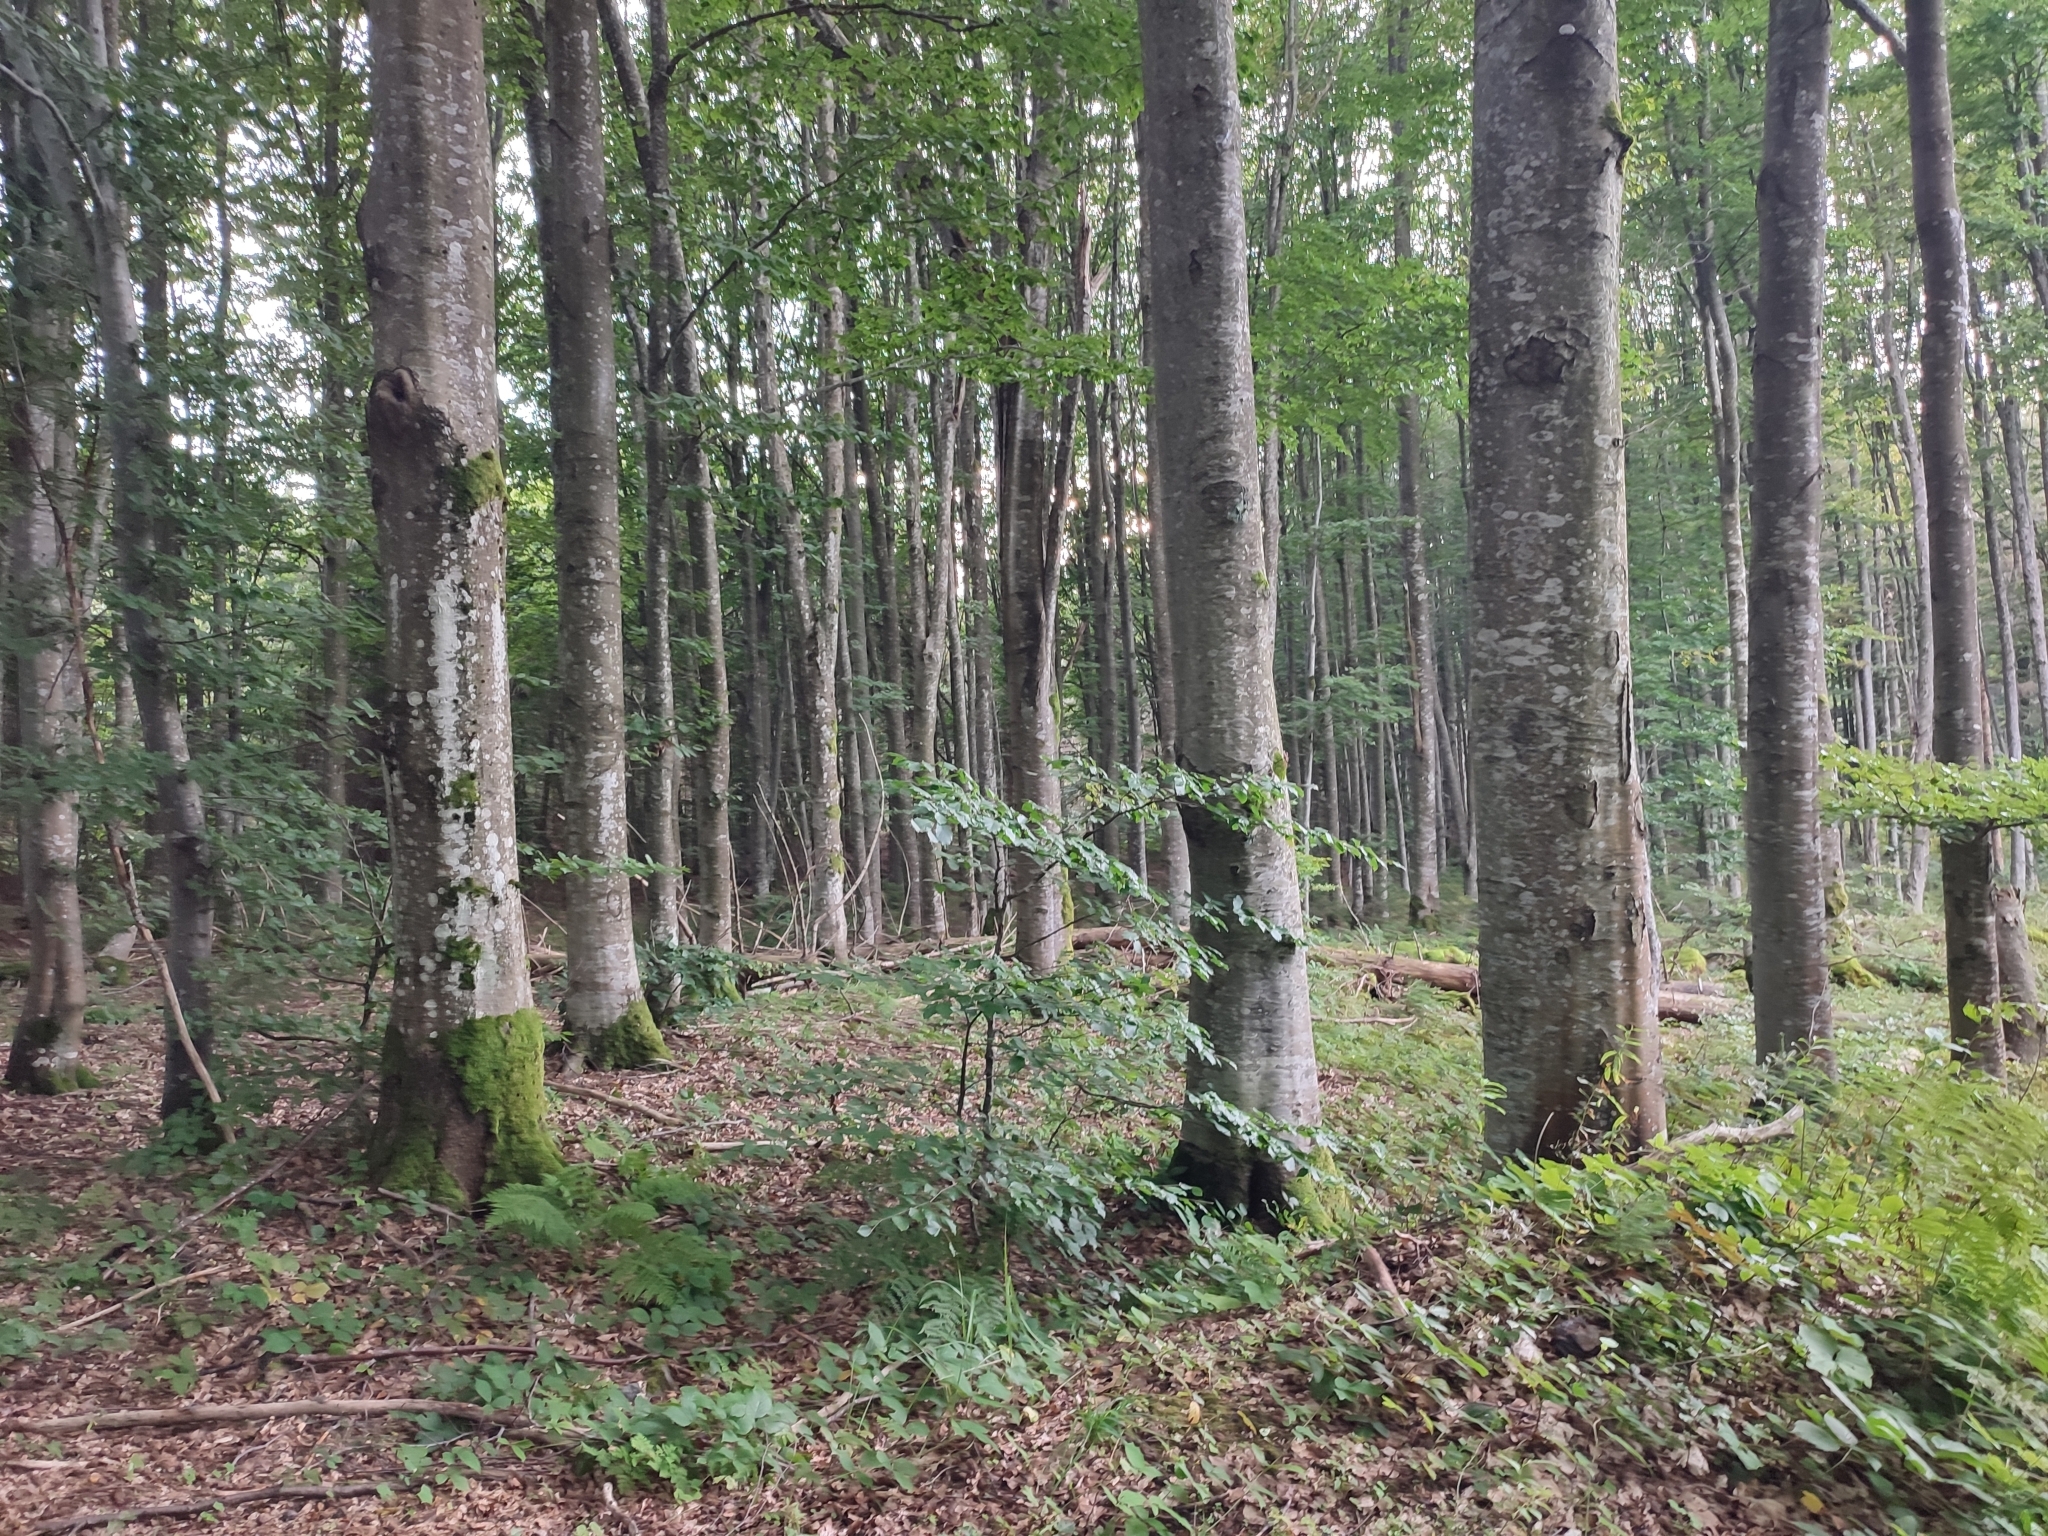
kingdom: Plantae
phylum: Tracheophyta
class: Magnoliopsida
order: Fagales
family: Fagaceae
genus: Fagus
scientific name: Fagus sylvatica
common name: Beech
